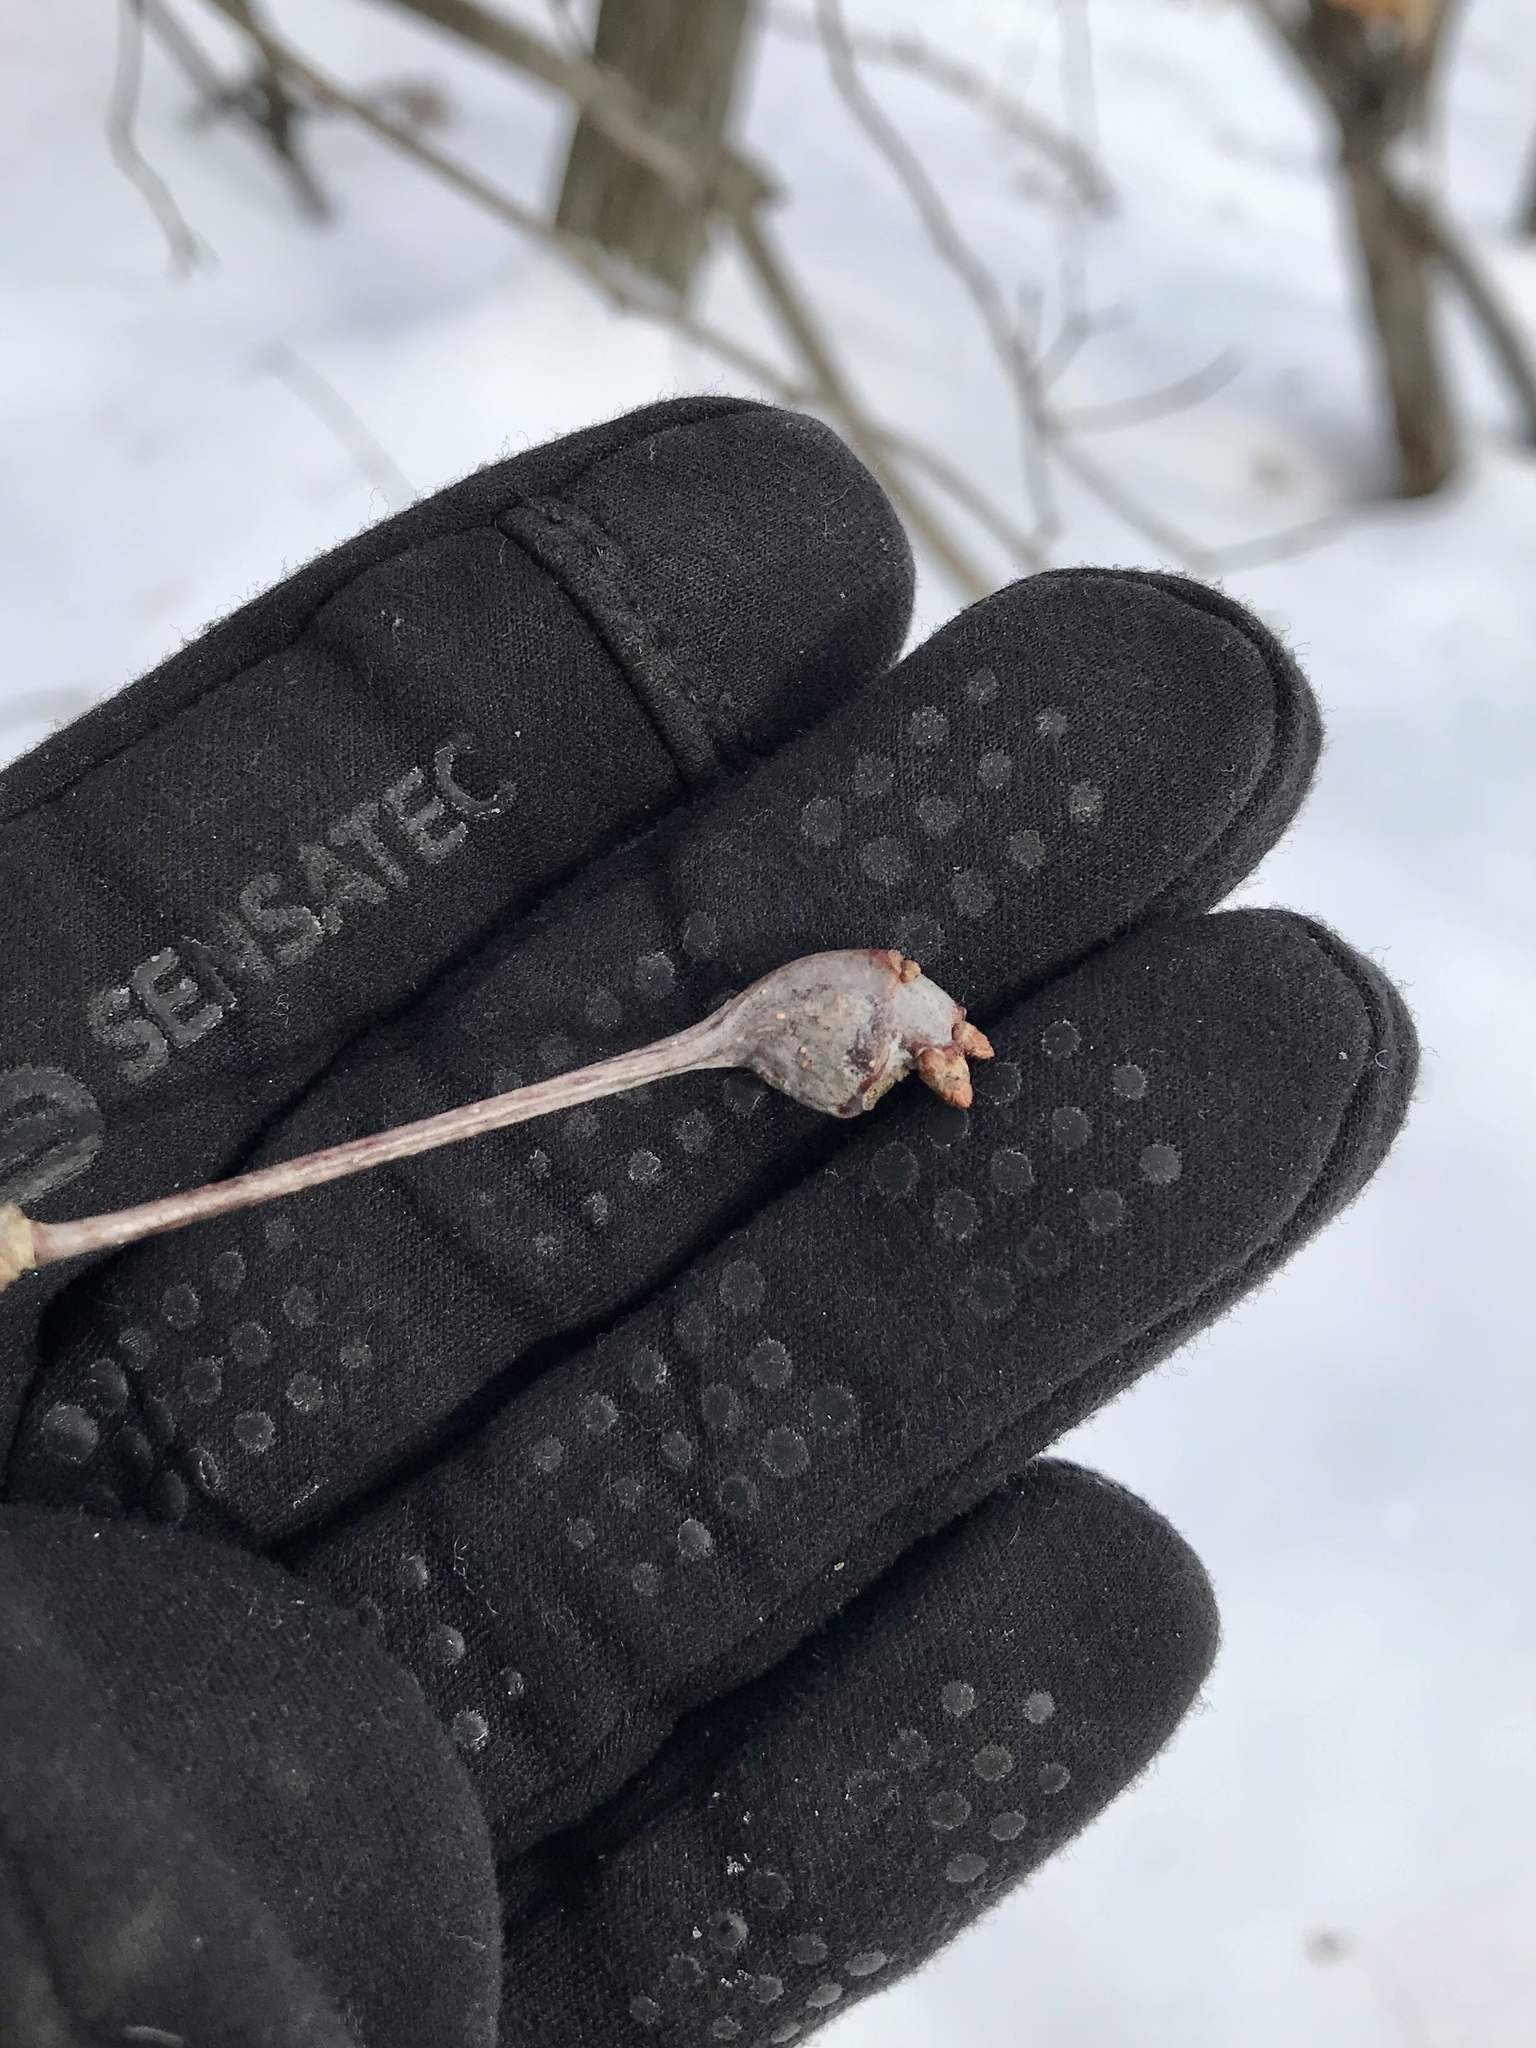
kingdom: Animalia
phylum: Arthropoda
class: Insecta
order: Hymenoptera
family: Cynipidae
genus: Callirhytis
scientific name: Callirhytis clavula
